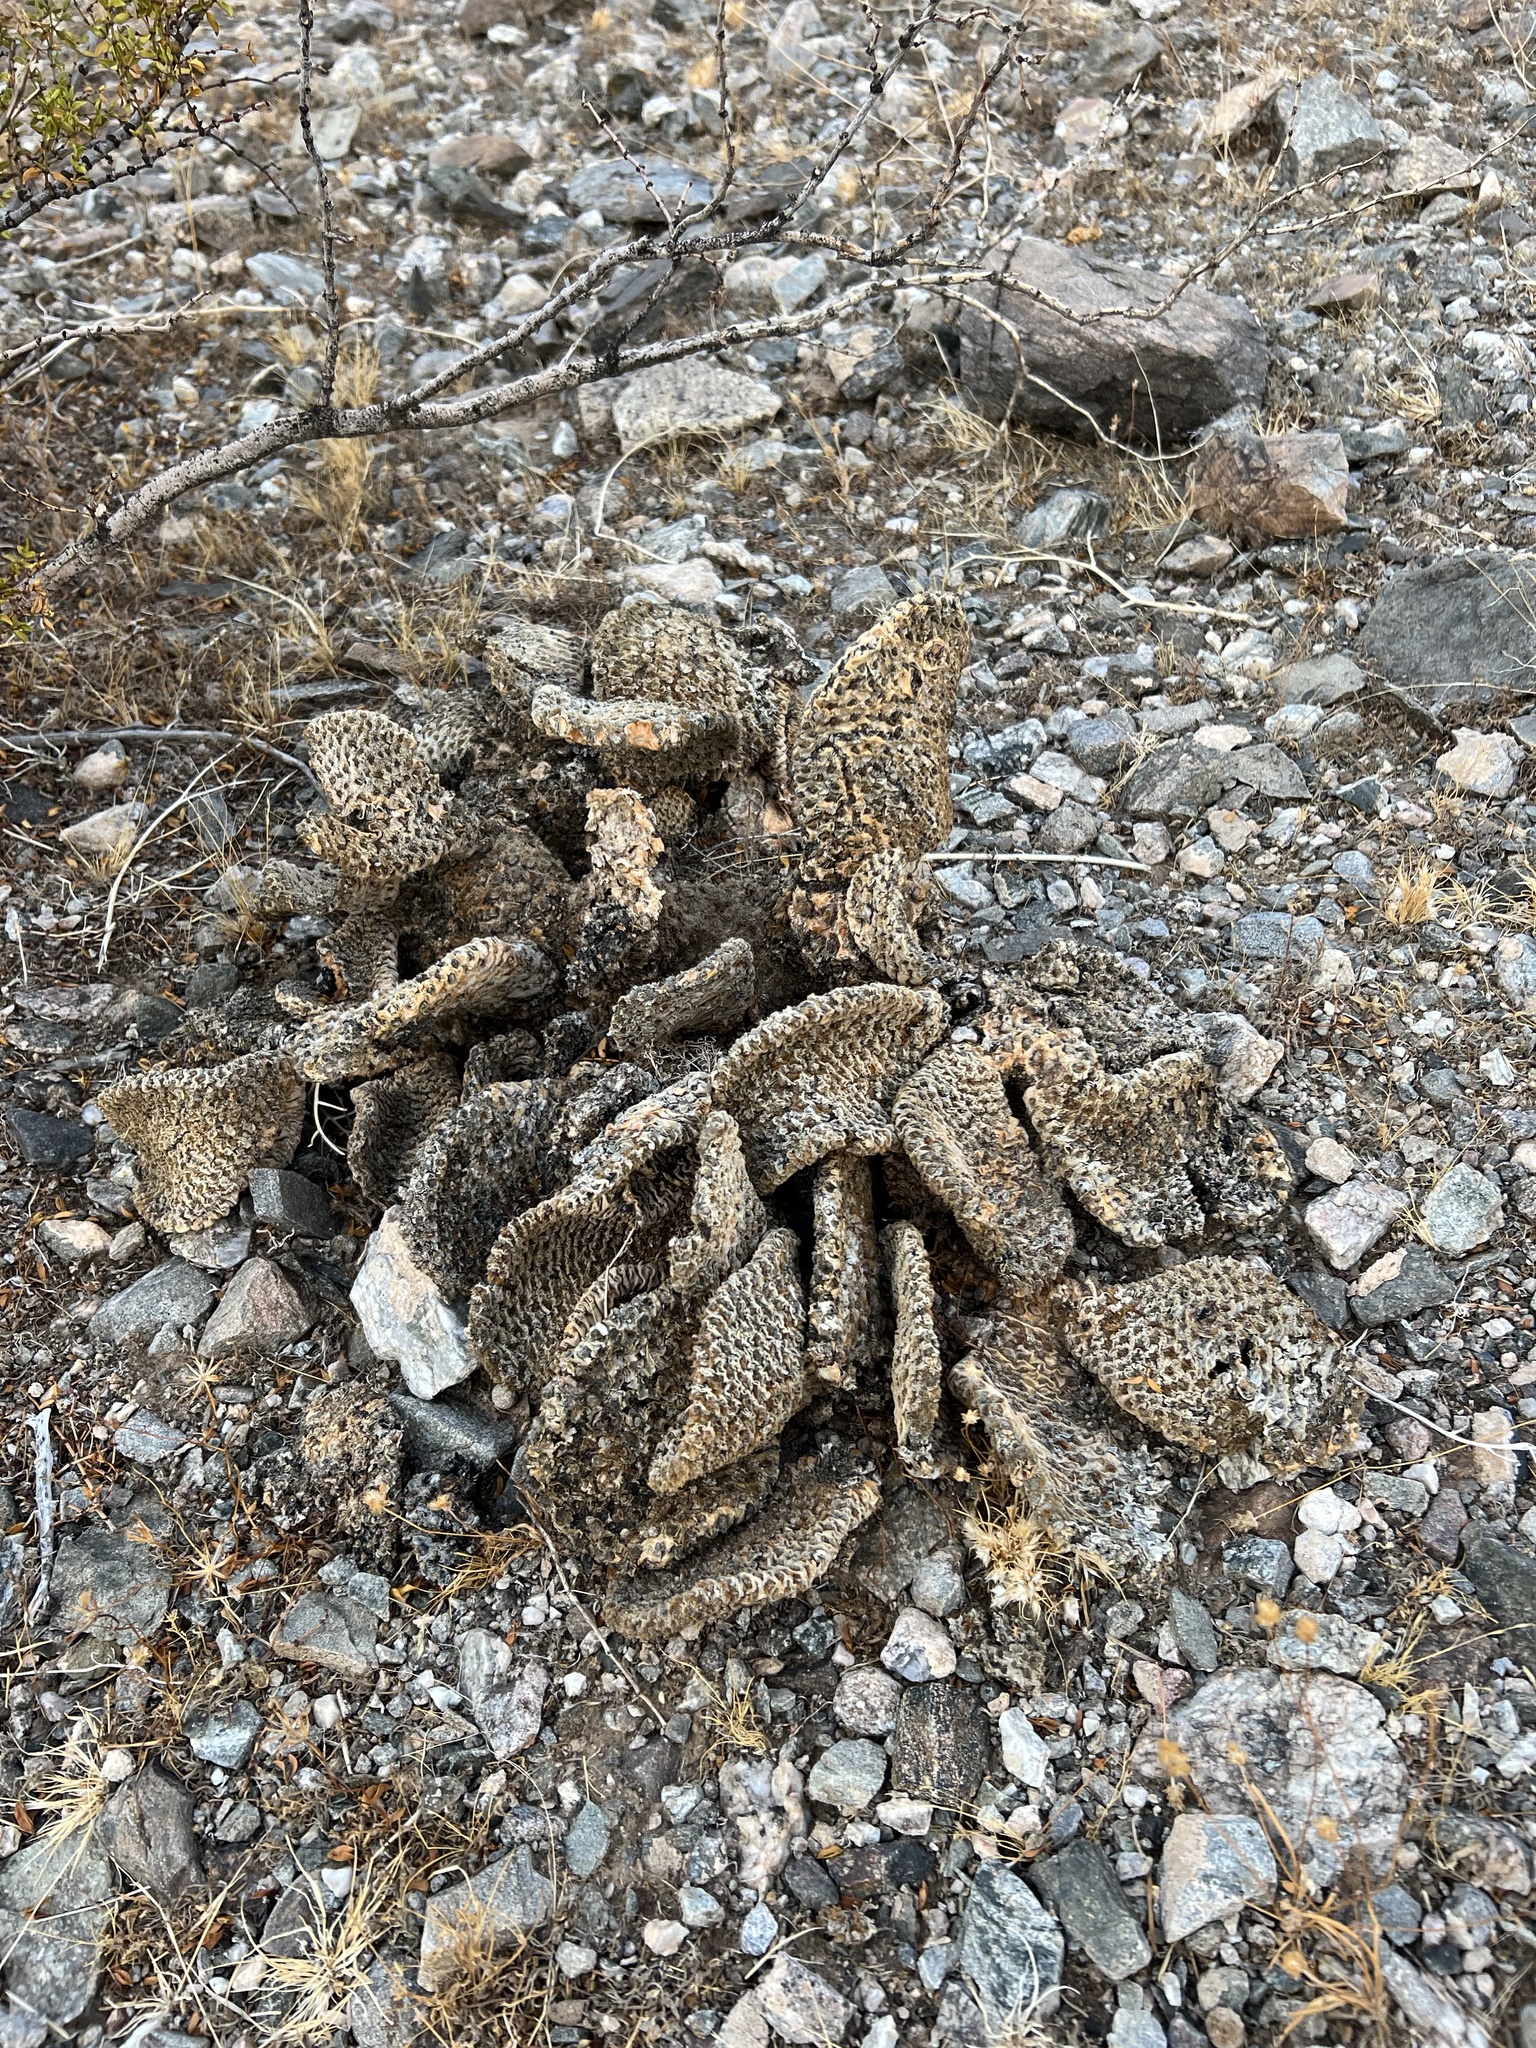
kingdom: Plantae
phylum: Tracheophyta
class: Magnoliopsida
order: Caryophyllales
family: Cactaceae
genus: Opuntia
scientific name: Opuntia basilaris
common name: Beavertail prickly-pear
